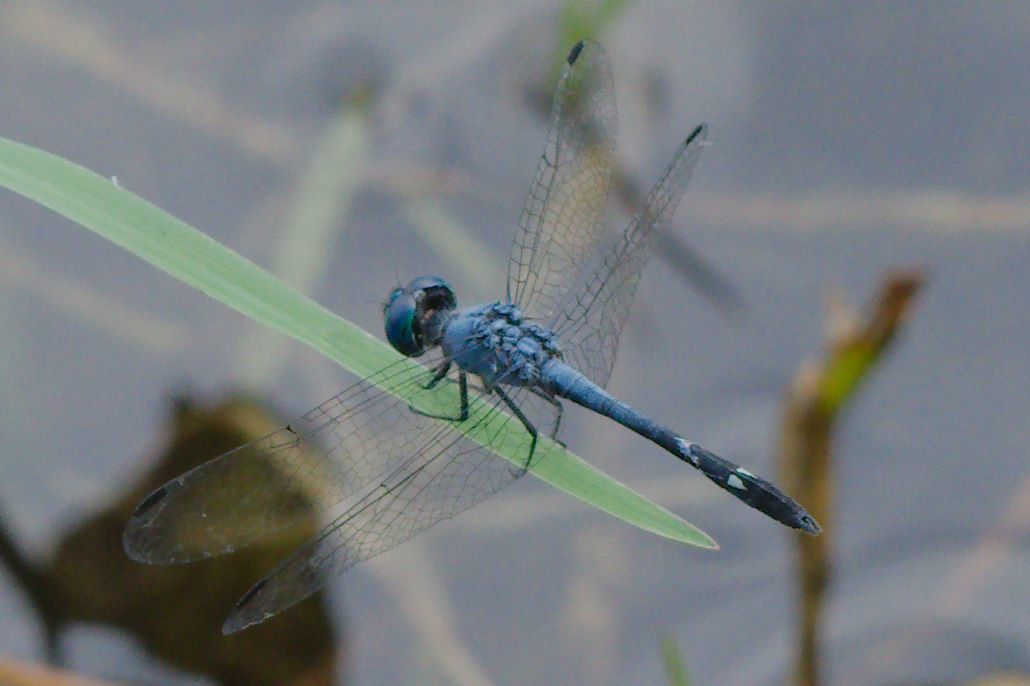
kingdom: Animalia
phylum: Arthropoda
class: Insecta
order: Odonata
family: Libellulidae
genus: Micrathyria
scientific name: Micrathyria aequalis
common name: Spot-tailed dasher
